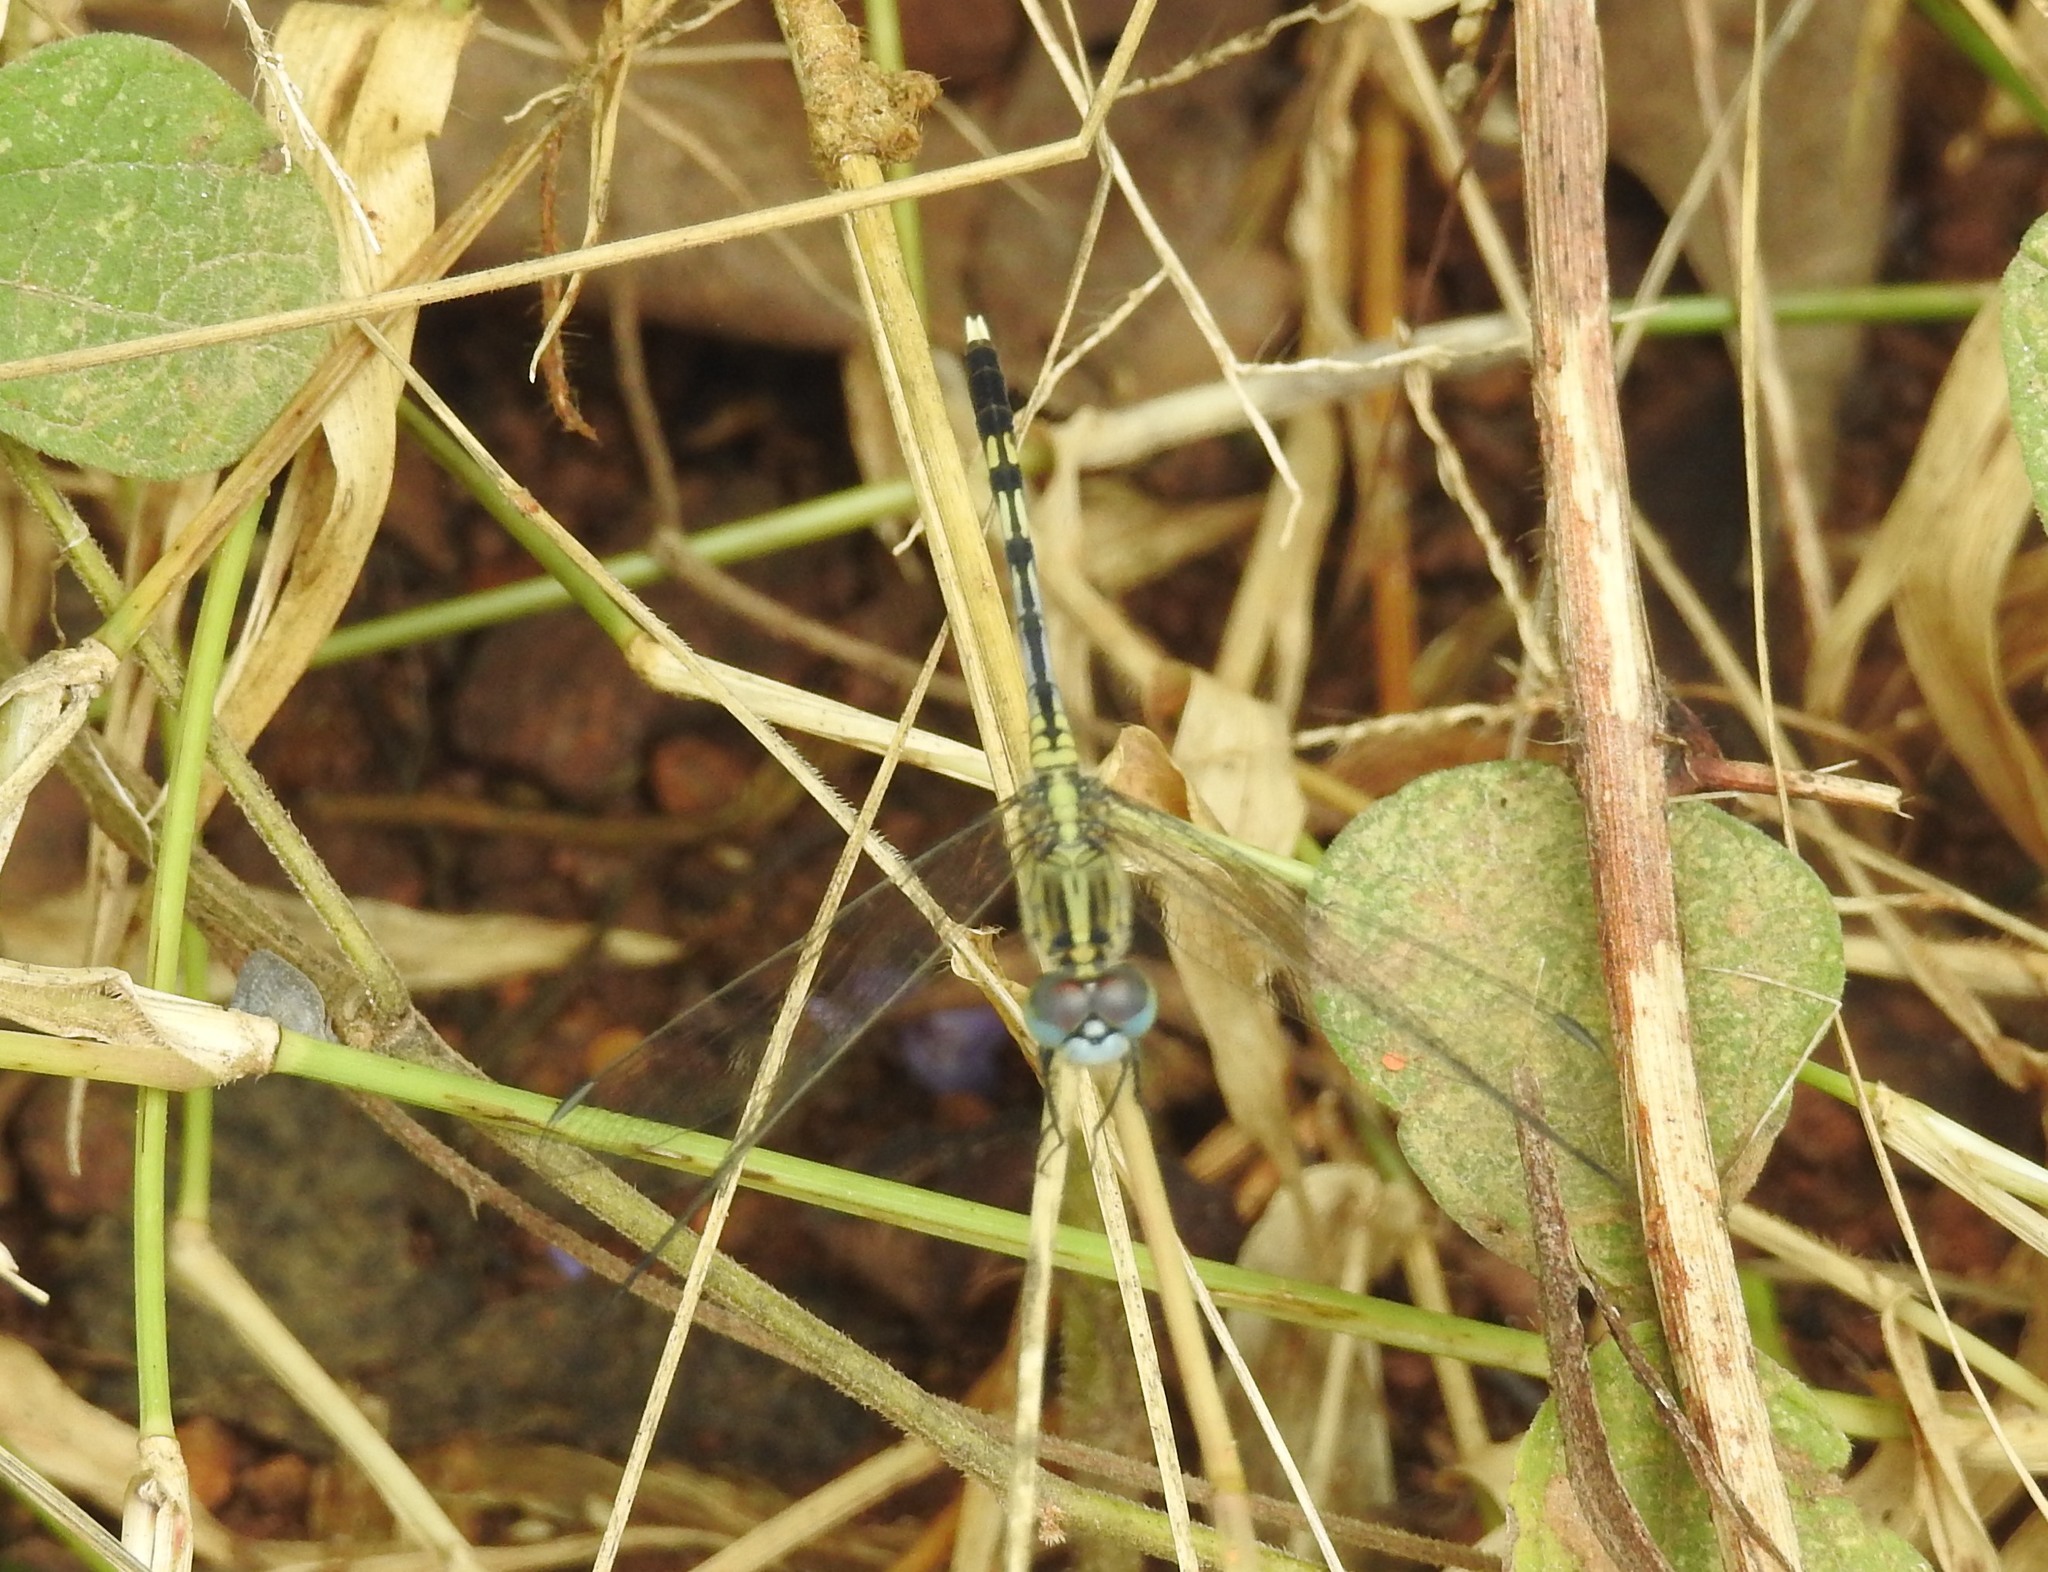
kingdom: Animalia
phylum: Arthropoda
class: Insecta
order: Odonata
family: Libellulidae
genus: Diplacodes
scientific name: Diplacodes trivialis
